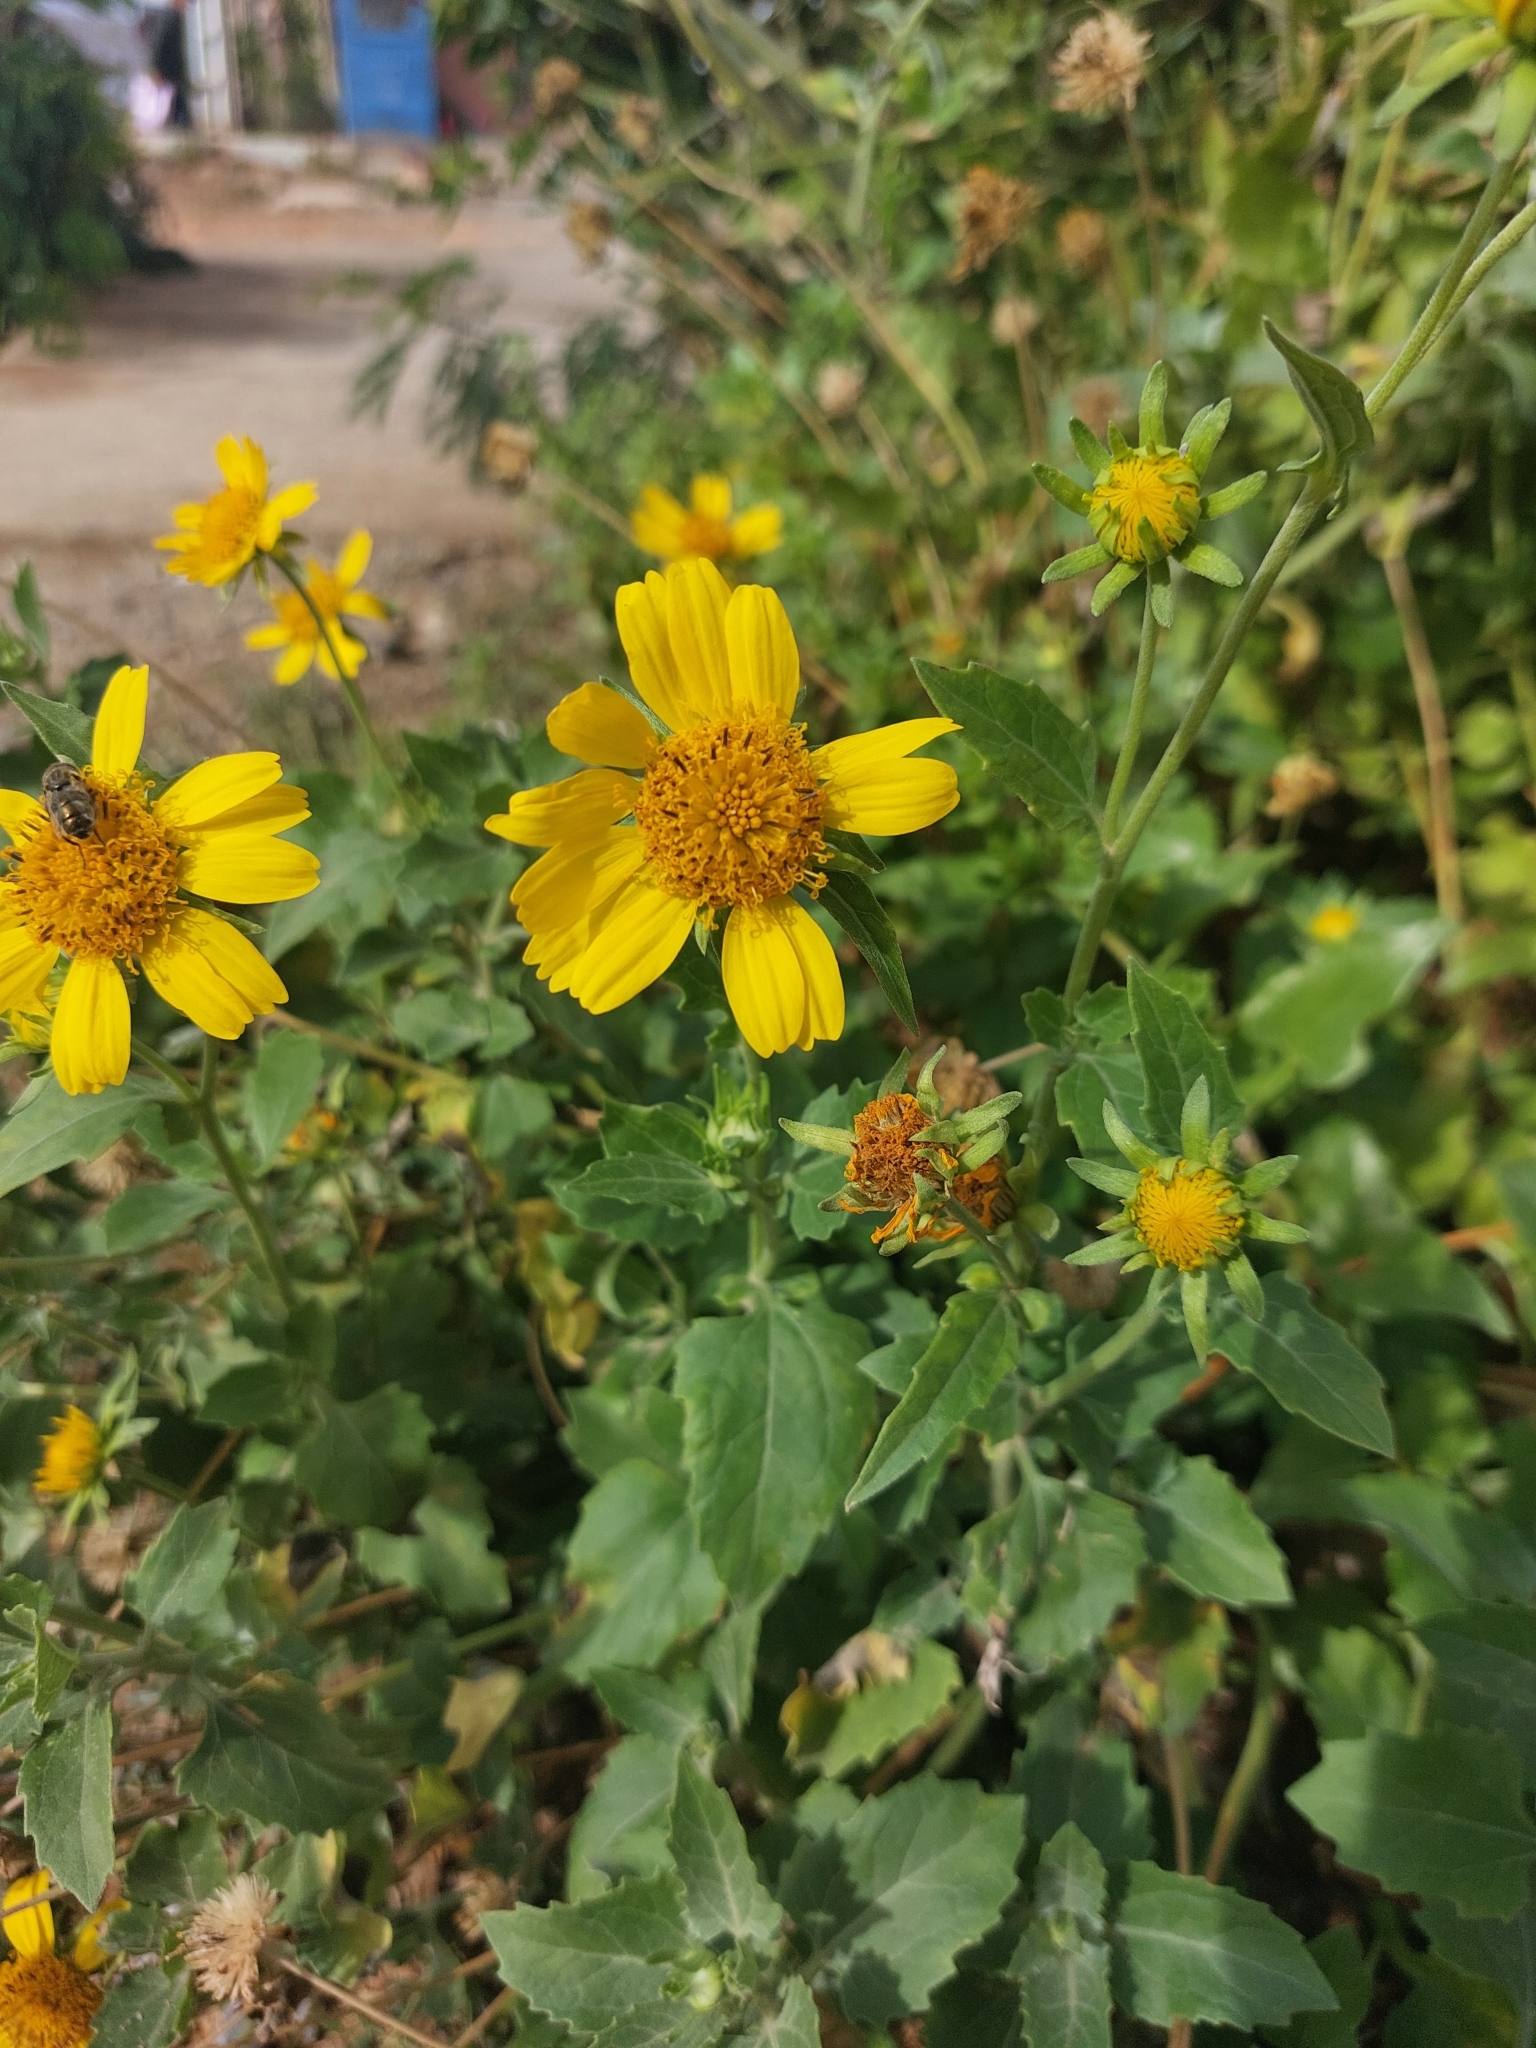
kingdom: Plantae
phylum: Tracheophyta
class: Magnoliopsida
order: Asterales
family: Asteraceae
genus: Verbesina
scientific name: Verbesina encelioides
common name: Golden crownbeard
